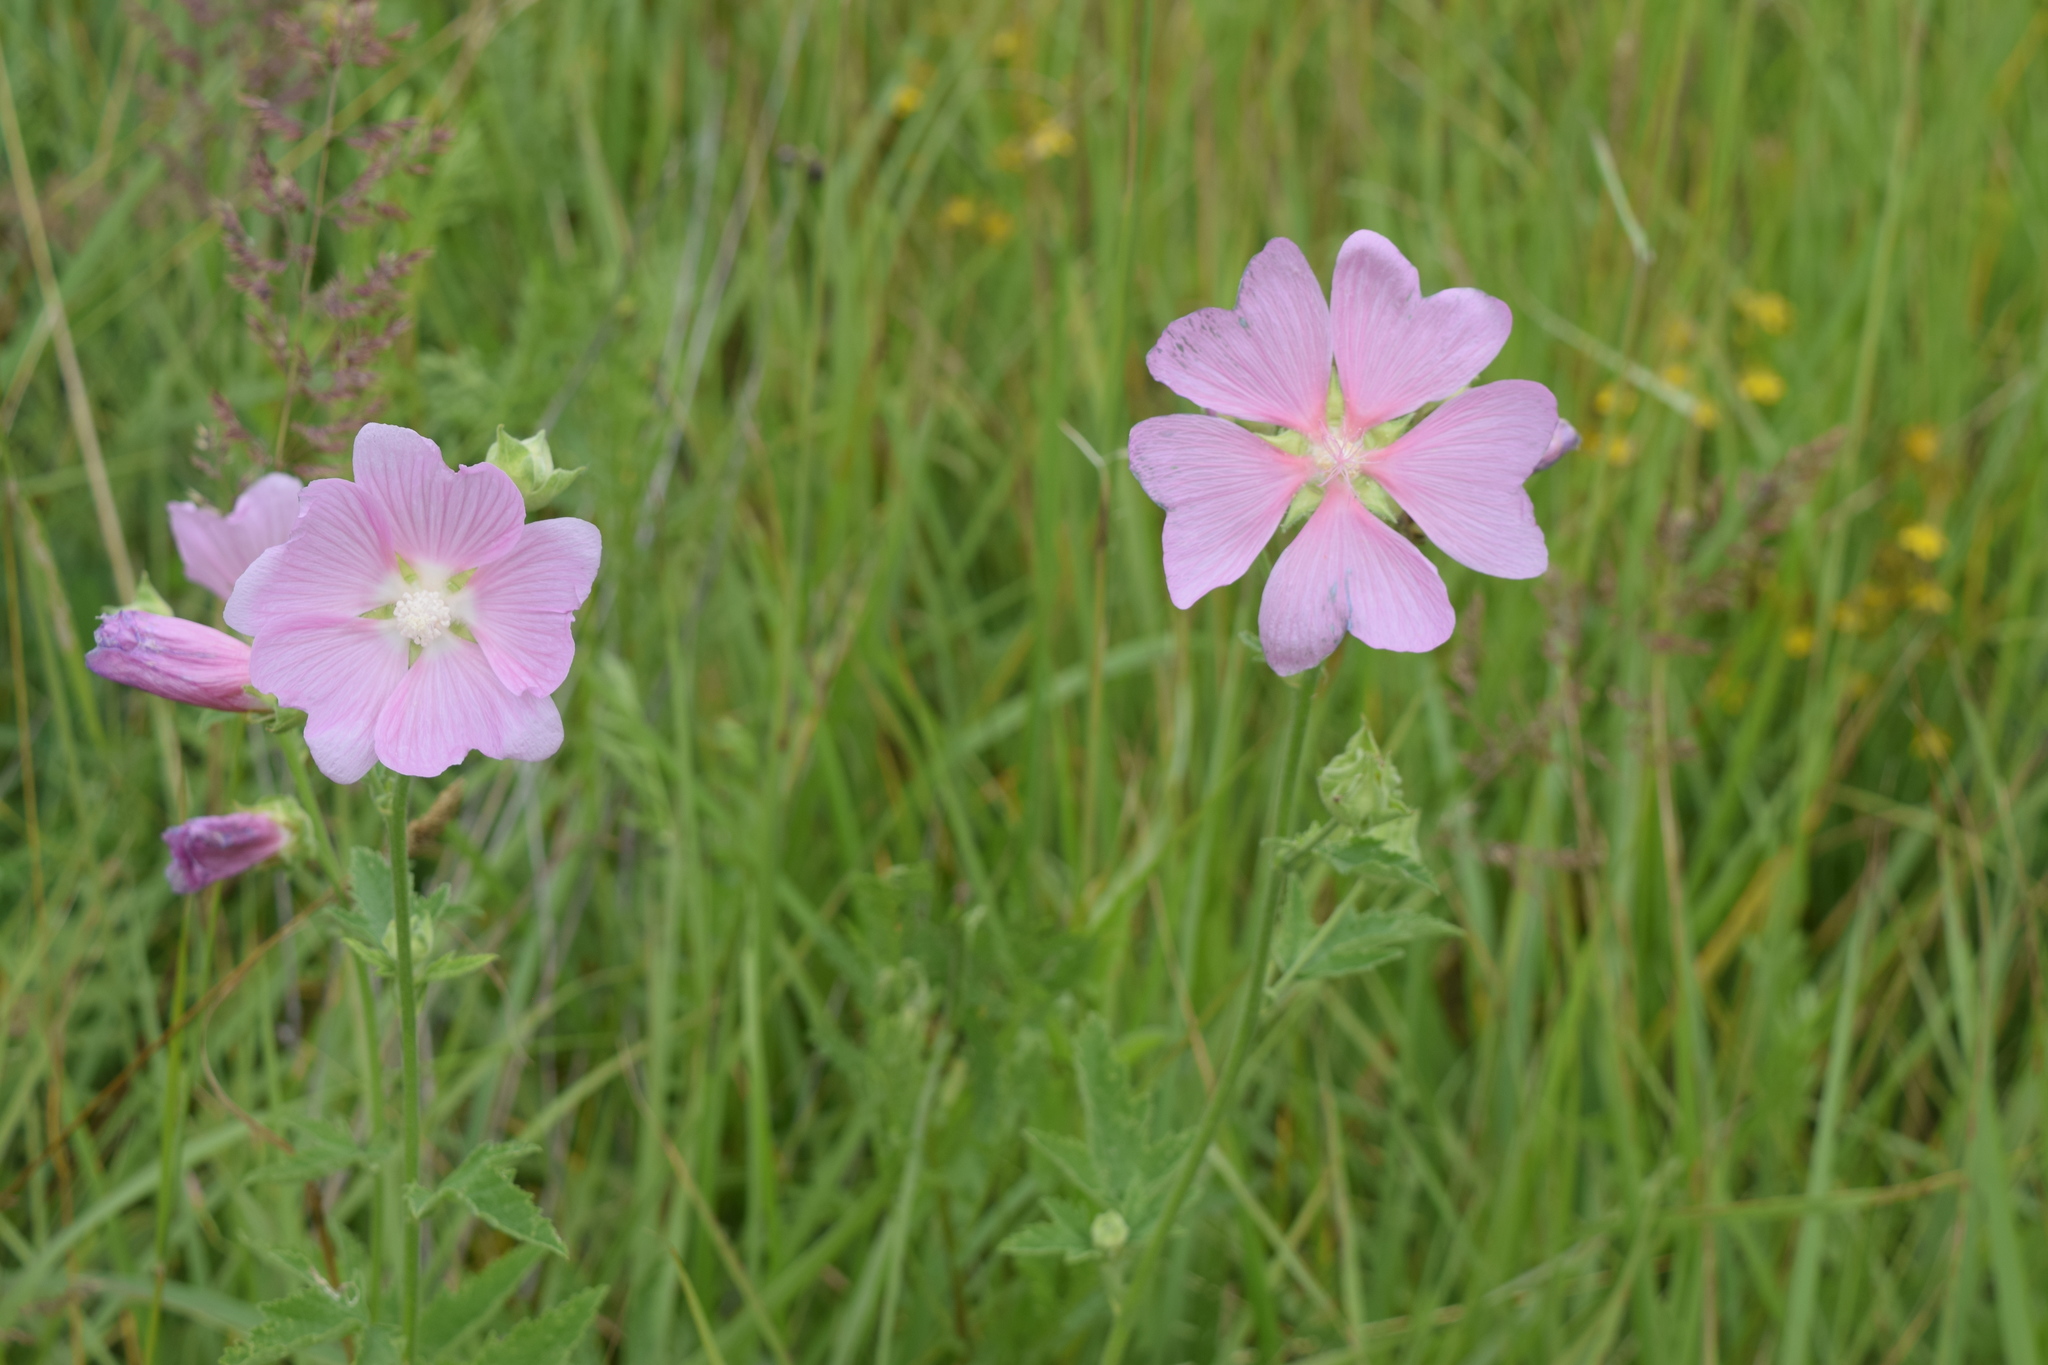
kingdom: Plantae
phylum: Tracheophyta
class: Magnoliopsida
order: Malvales
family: Malvaceae
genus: Malva
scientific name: Malva thuringiaca
